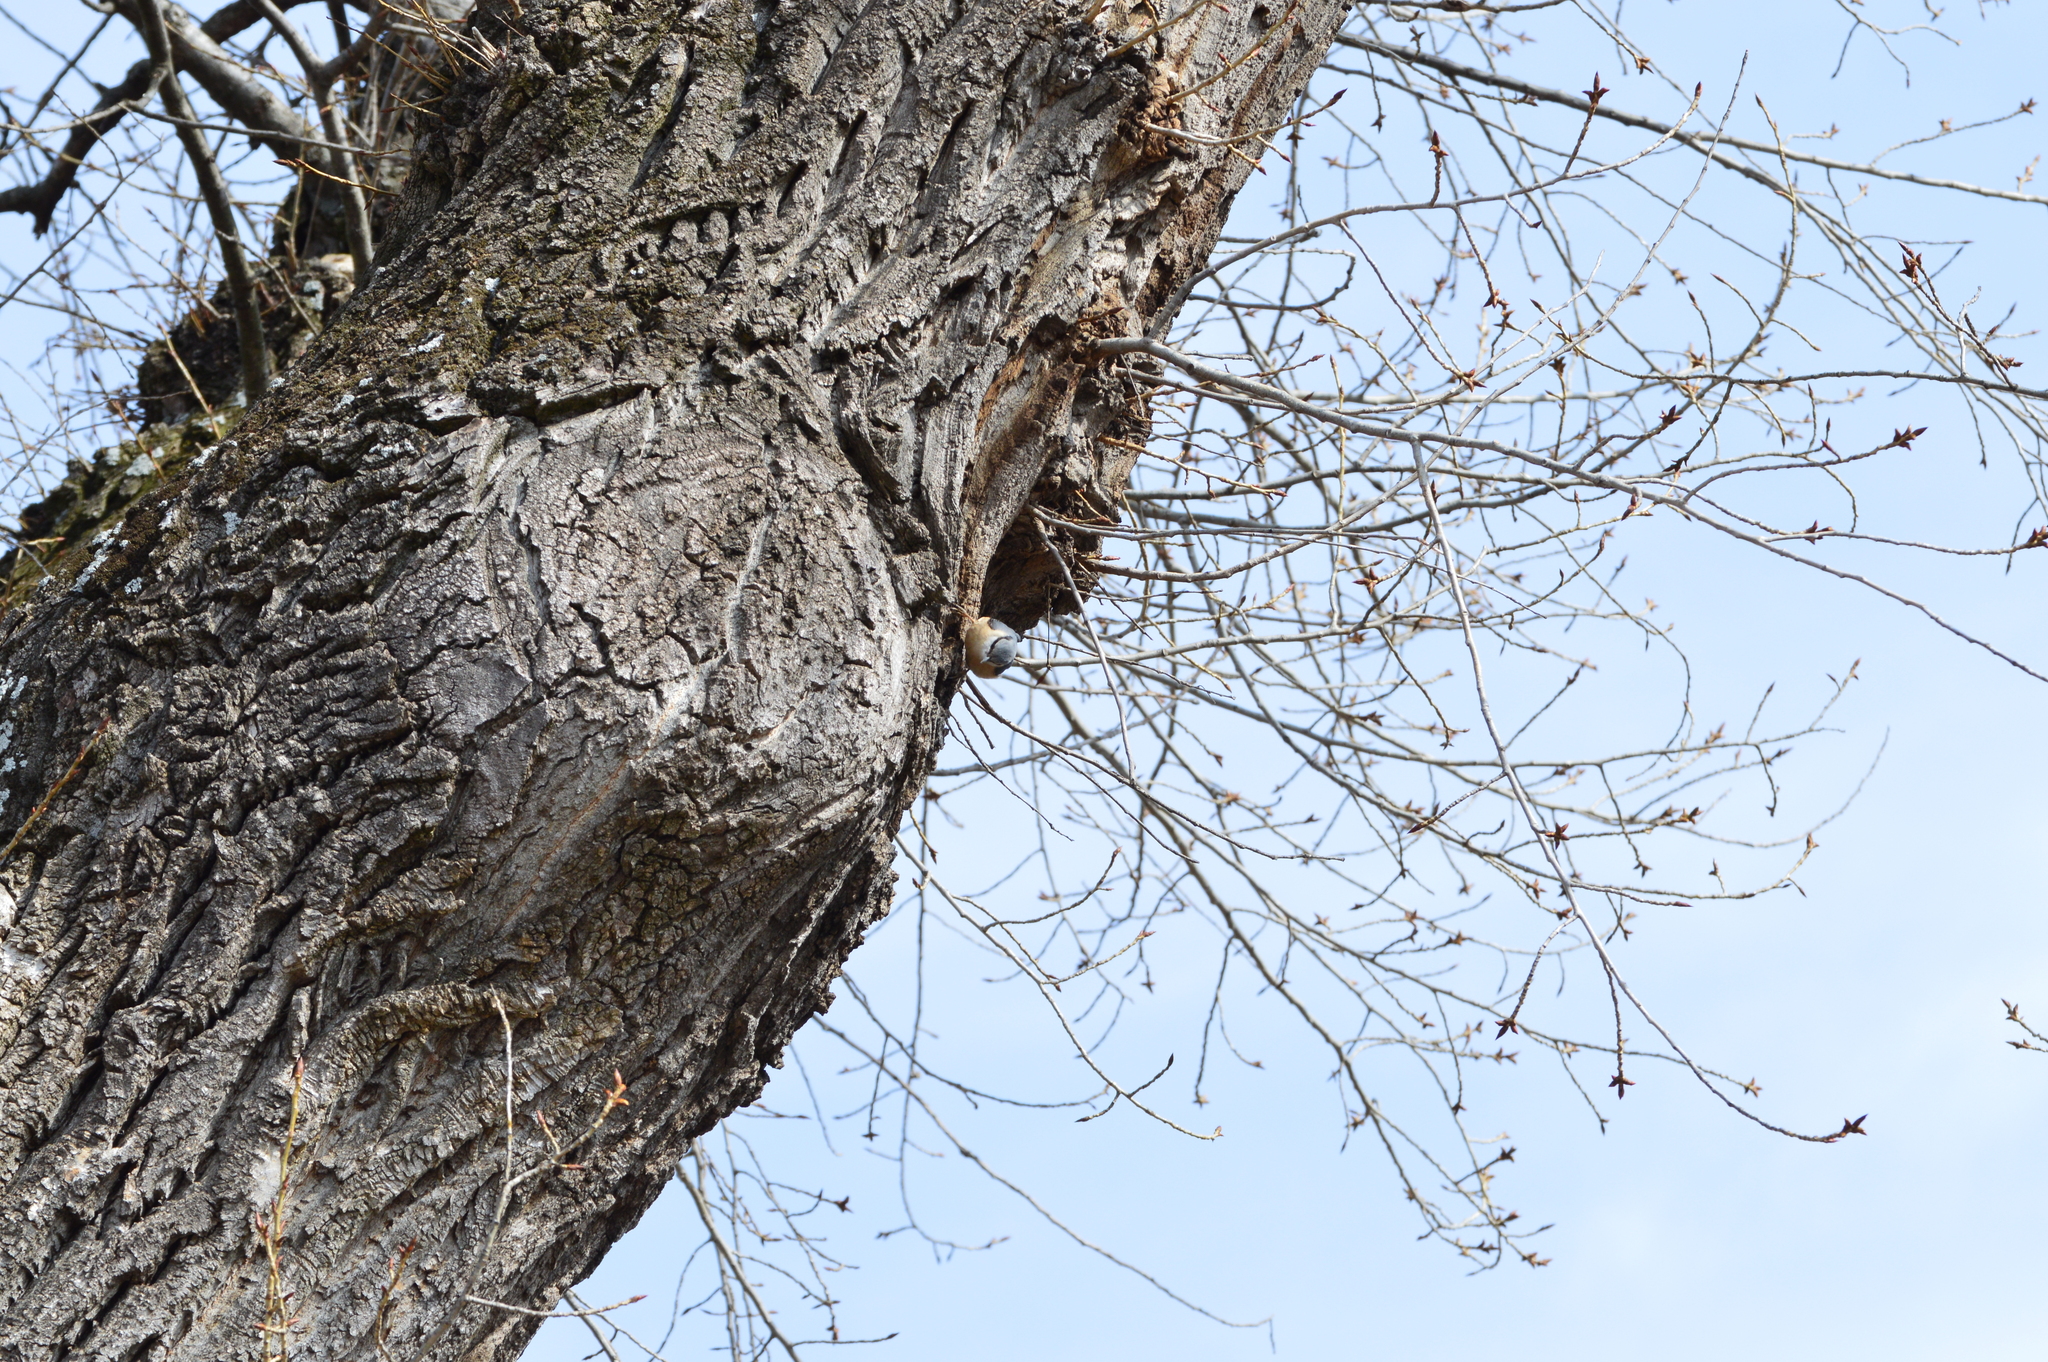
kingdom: Animalia
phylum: Chordata
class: Aves
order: Passeriformes
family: Sittidae
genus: Sitta
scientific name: Sitta europaea
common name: Eurasian nuthatch
